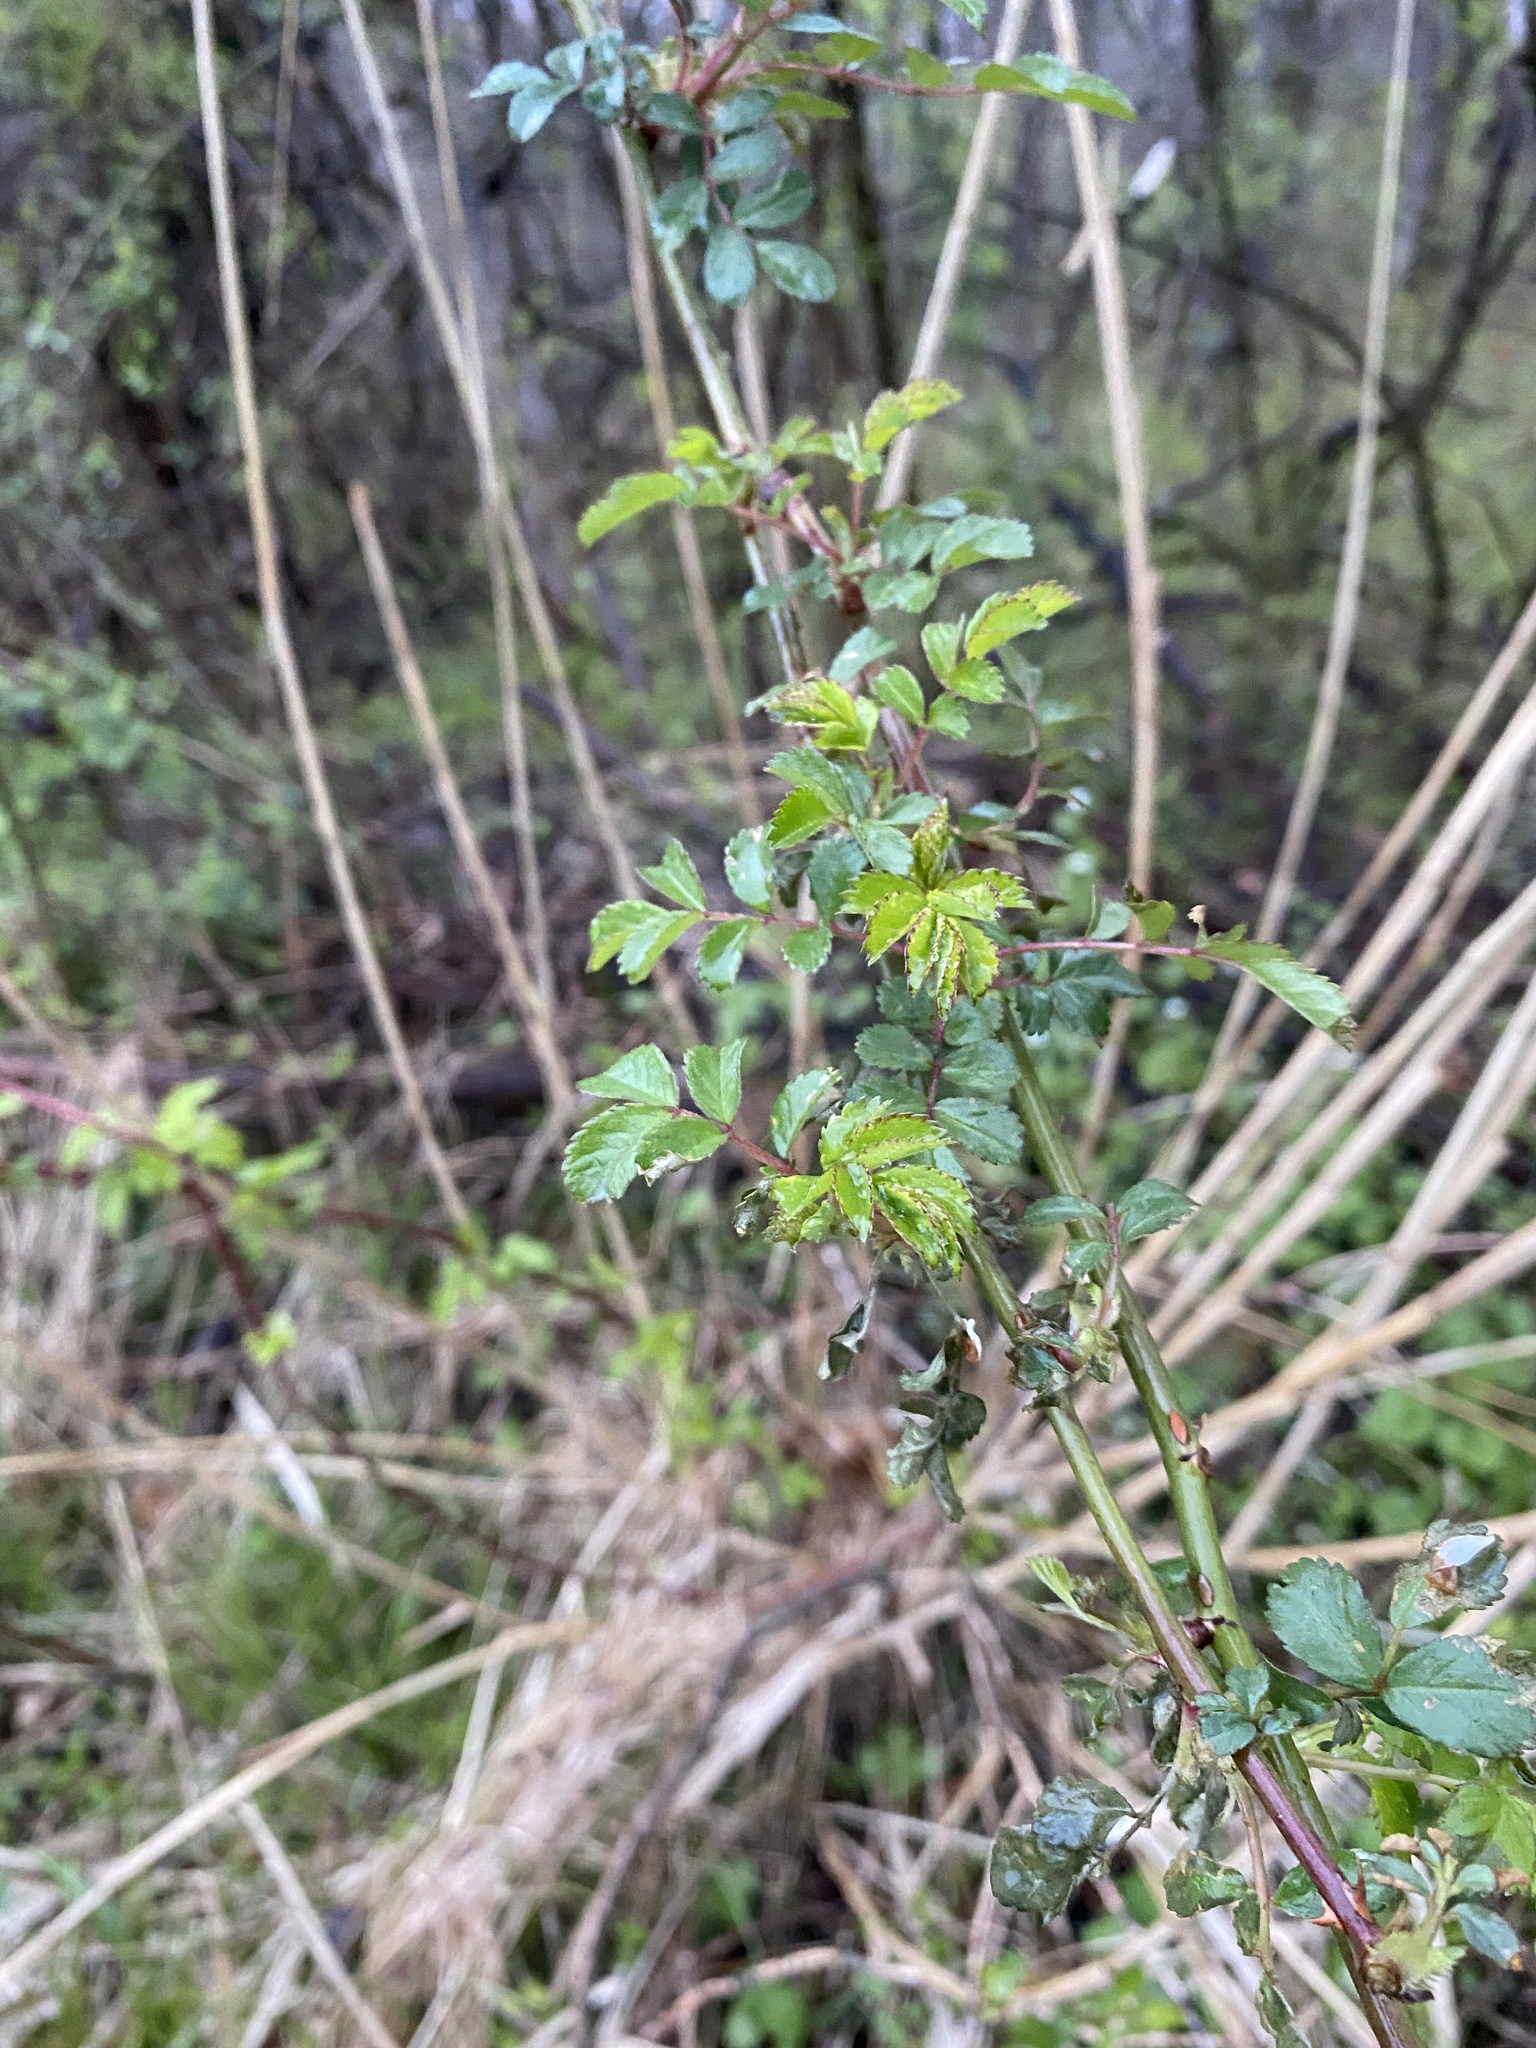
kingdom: Plantae
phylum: Tracheophyta
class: Magnoliopsida
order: Rosales
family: Rosaceae
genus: Rosa
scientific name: Rosa multiflora
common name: Multiflora rose
